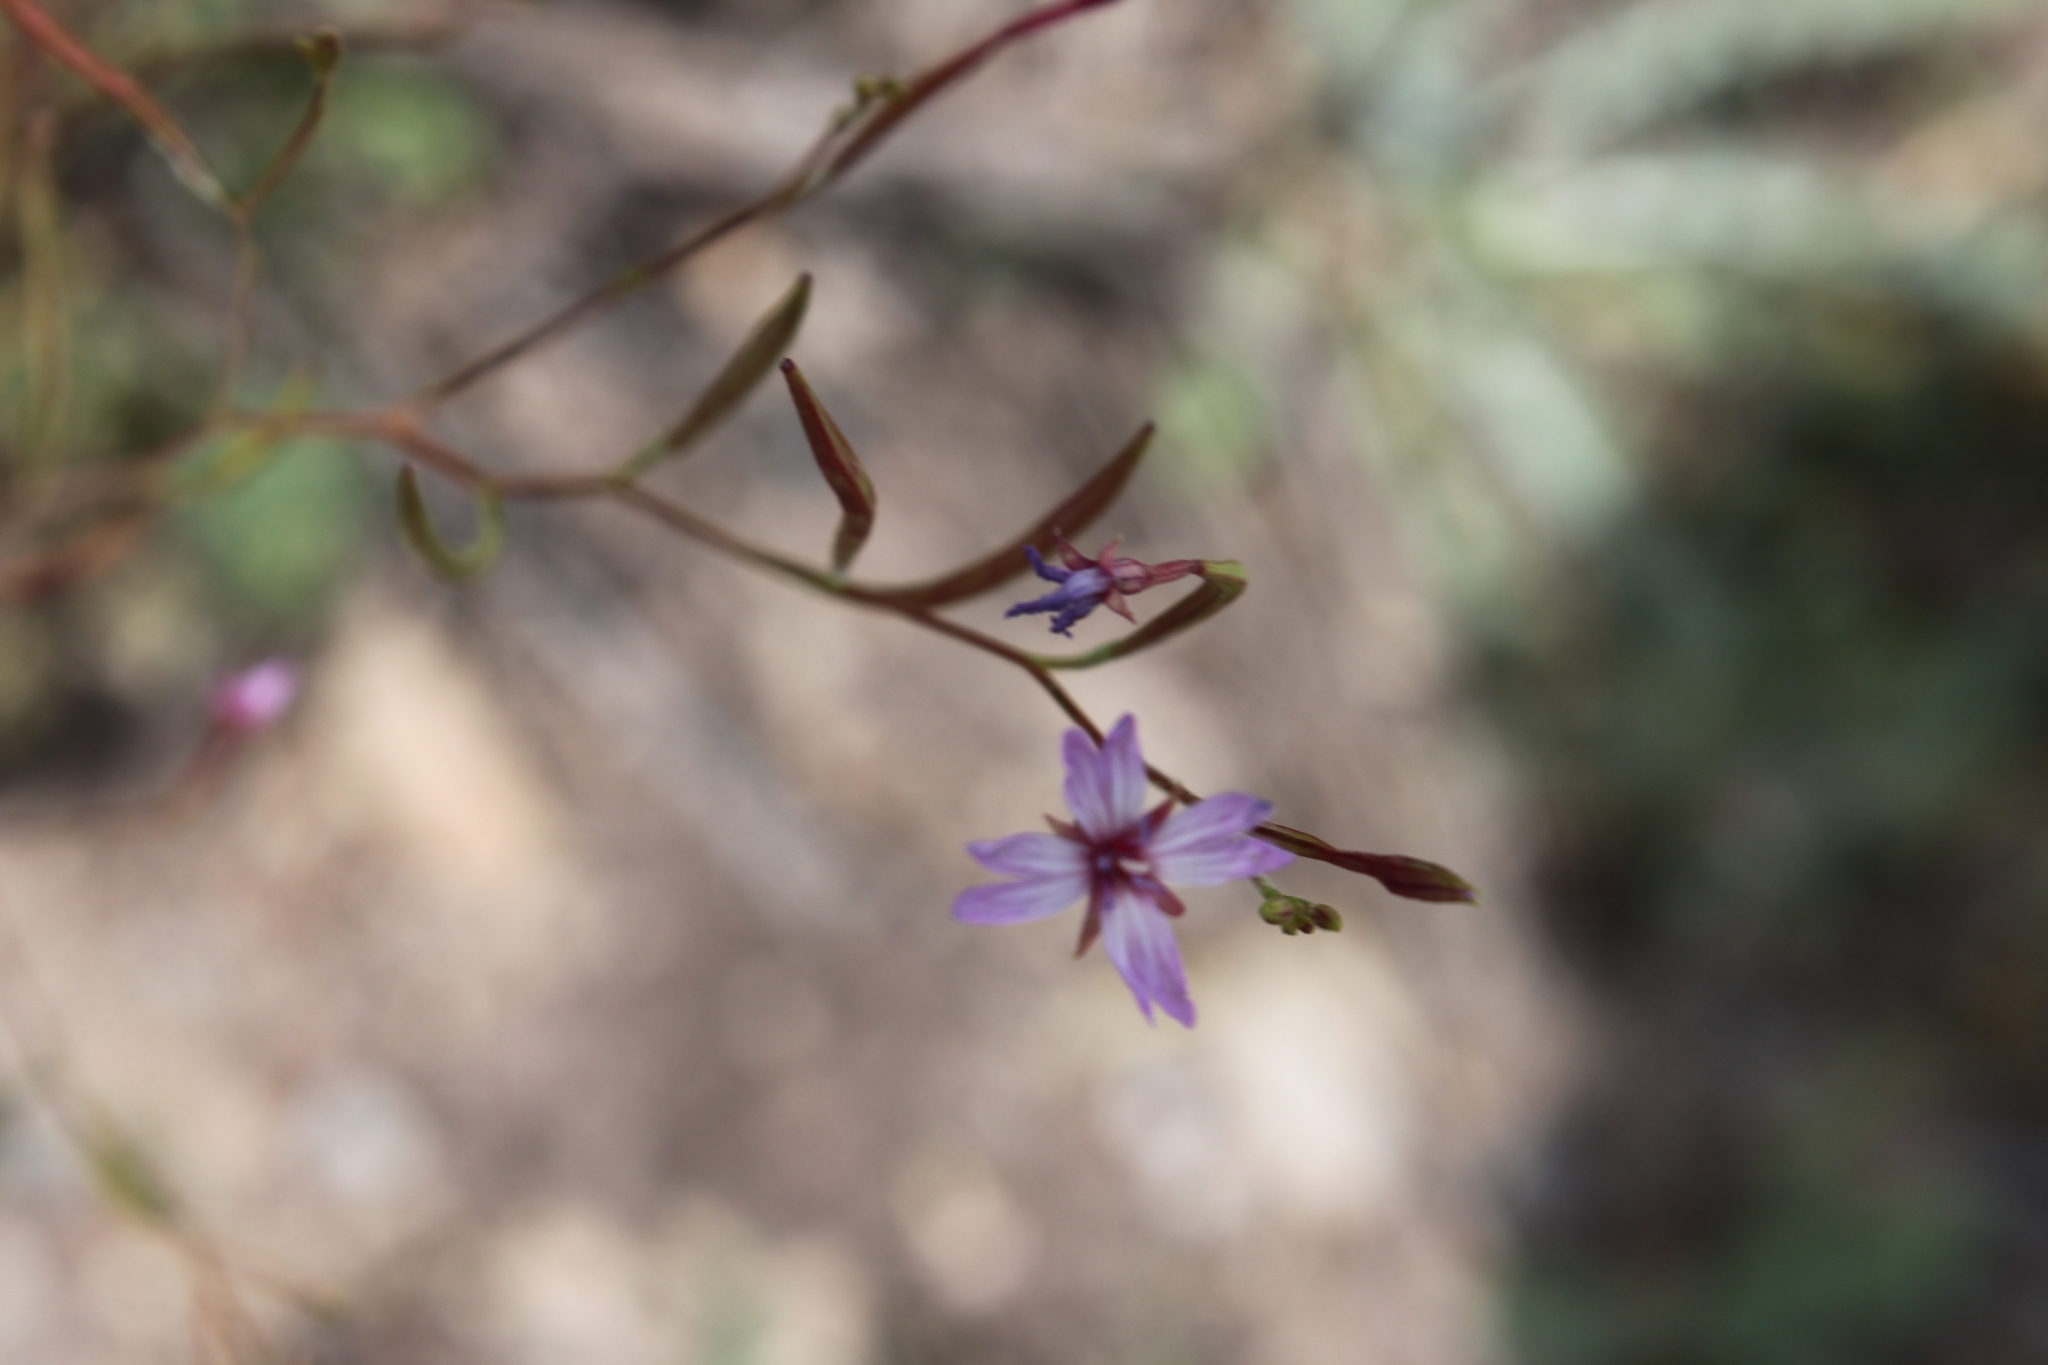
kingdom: Plantae
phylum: Tracheophyta
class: Magnoliopsida
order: Myrtales
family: Onagraceae
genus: Epilobium
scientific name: Epilobium brachycarpum
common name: Annual willowherb
